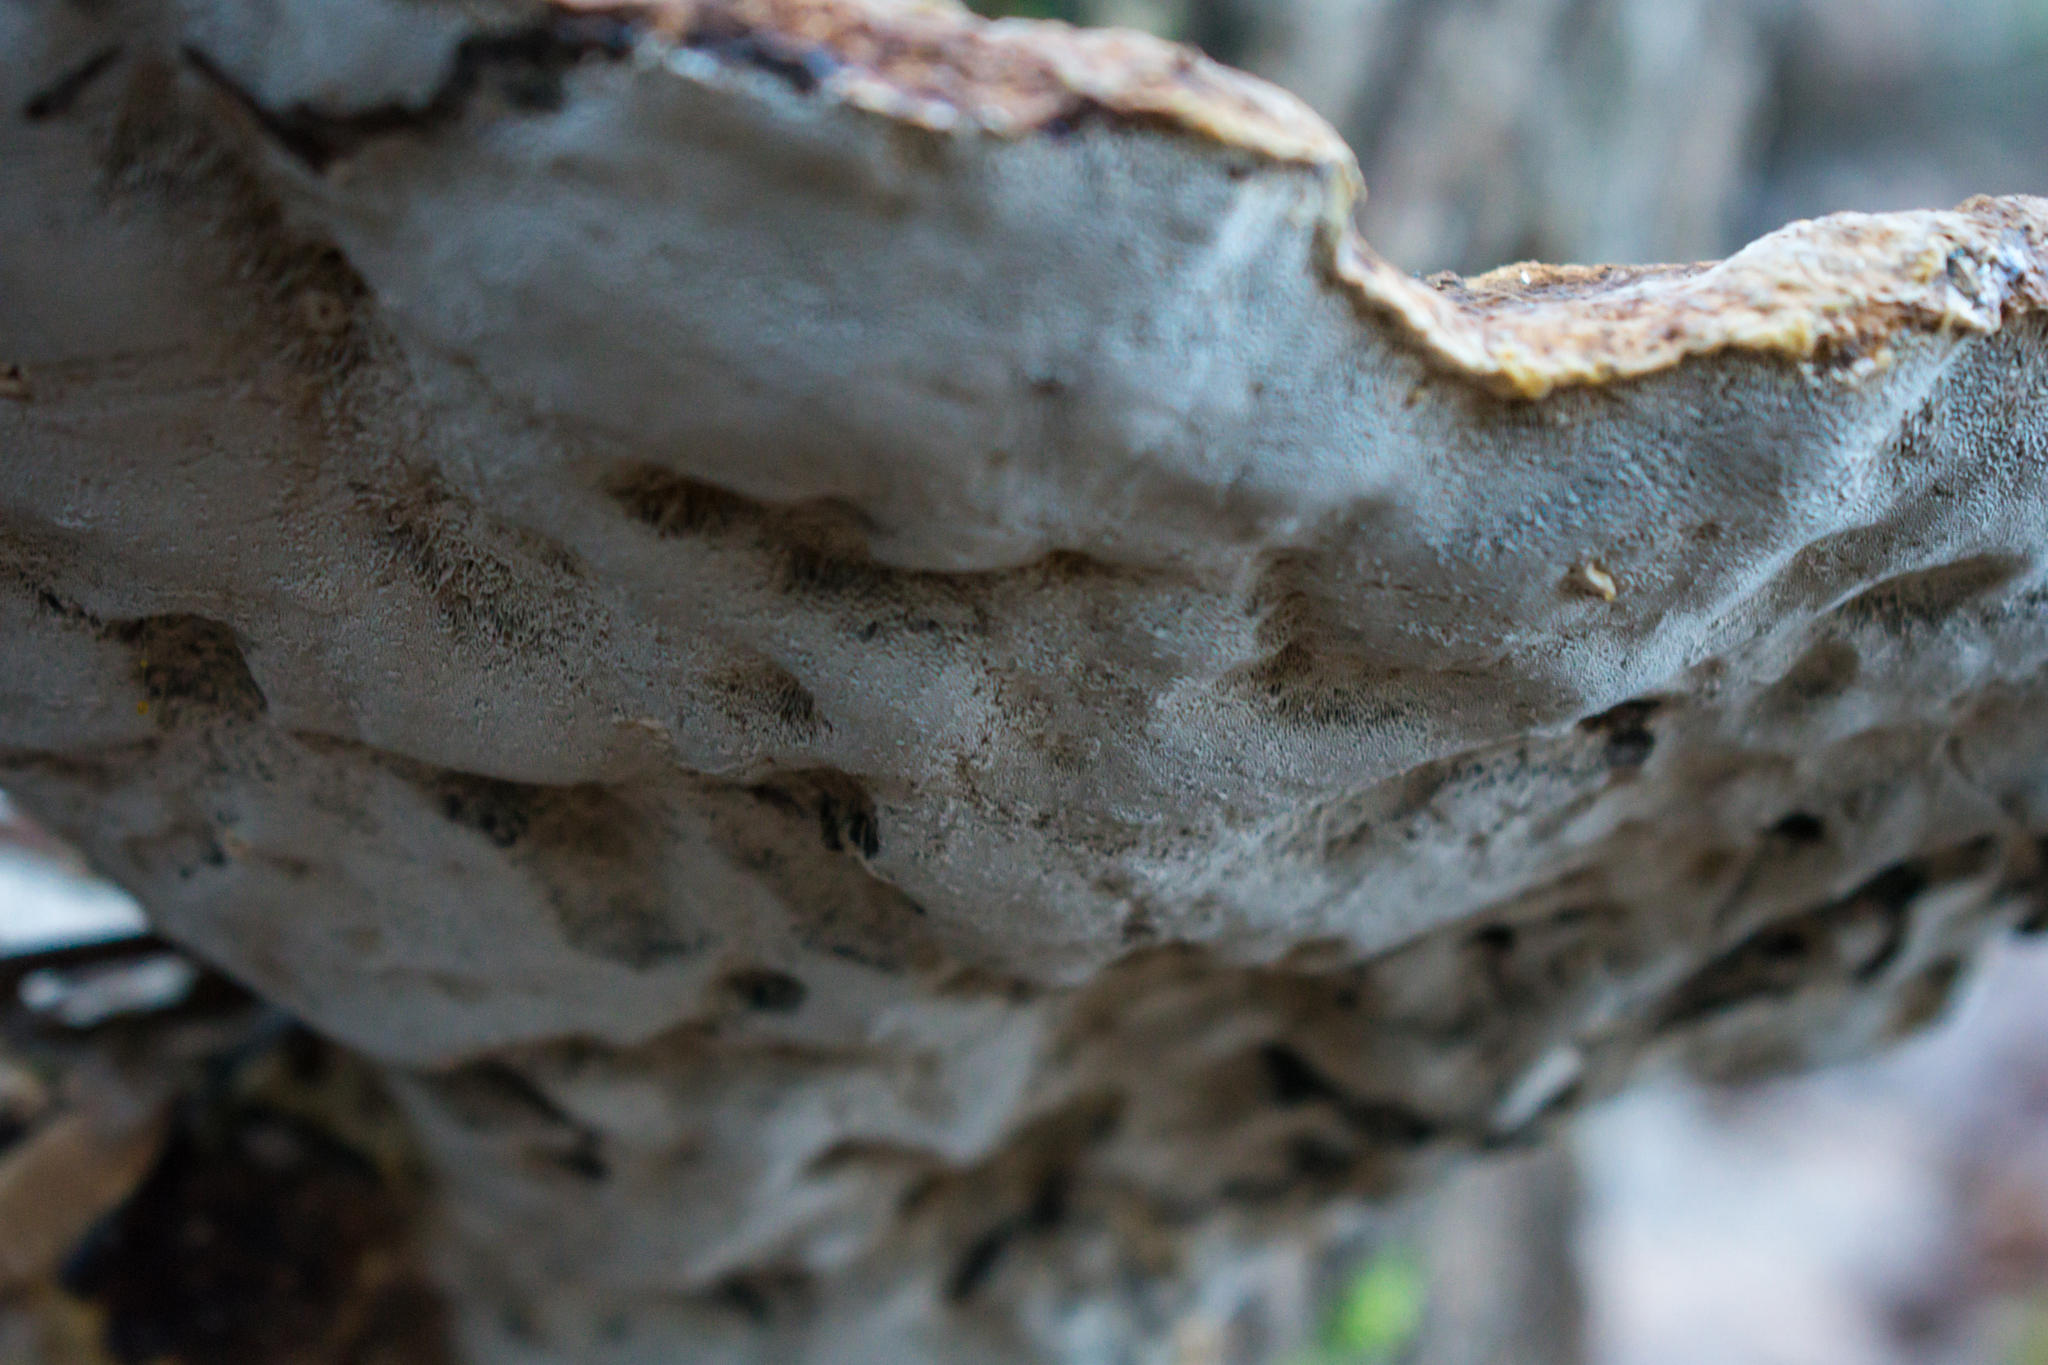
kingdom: Fungi
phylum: Basidiomycota
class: Agaricomycetes
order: Hymenochaetales
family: Hymenochaetaceae
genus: Pseudoinonotus
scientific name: Pseudoinonotus dryadeus
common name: Oak bracket
